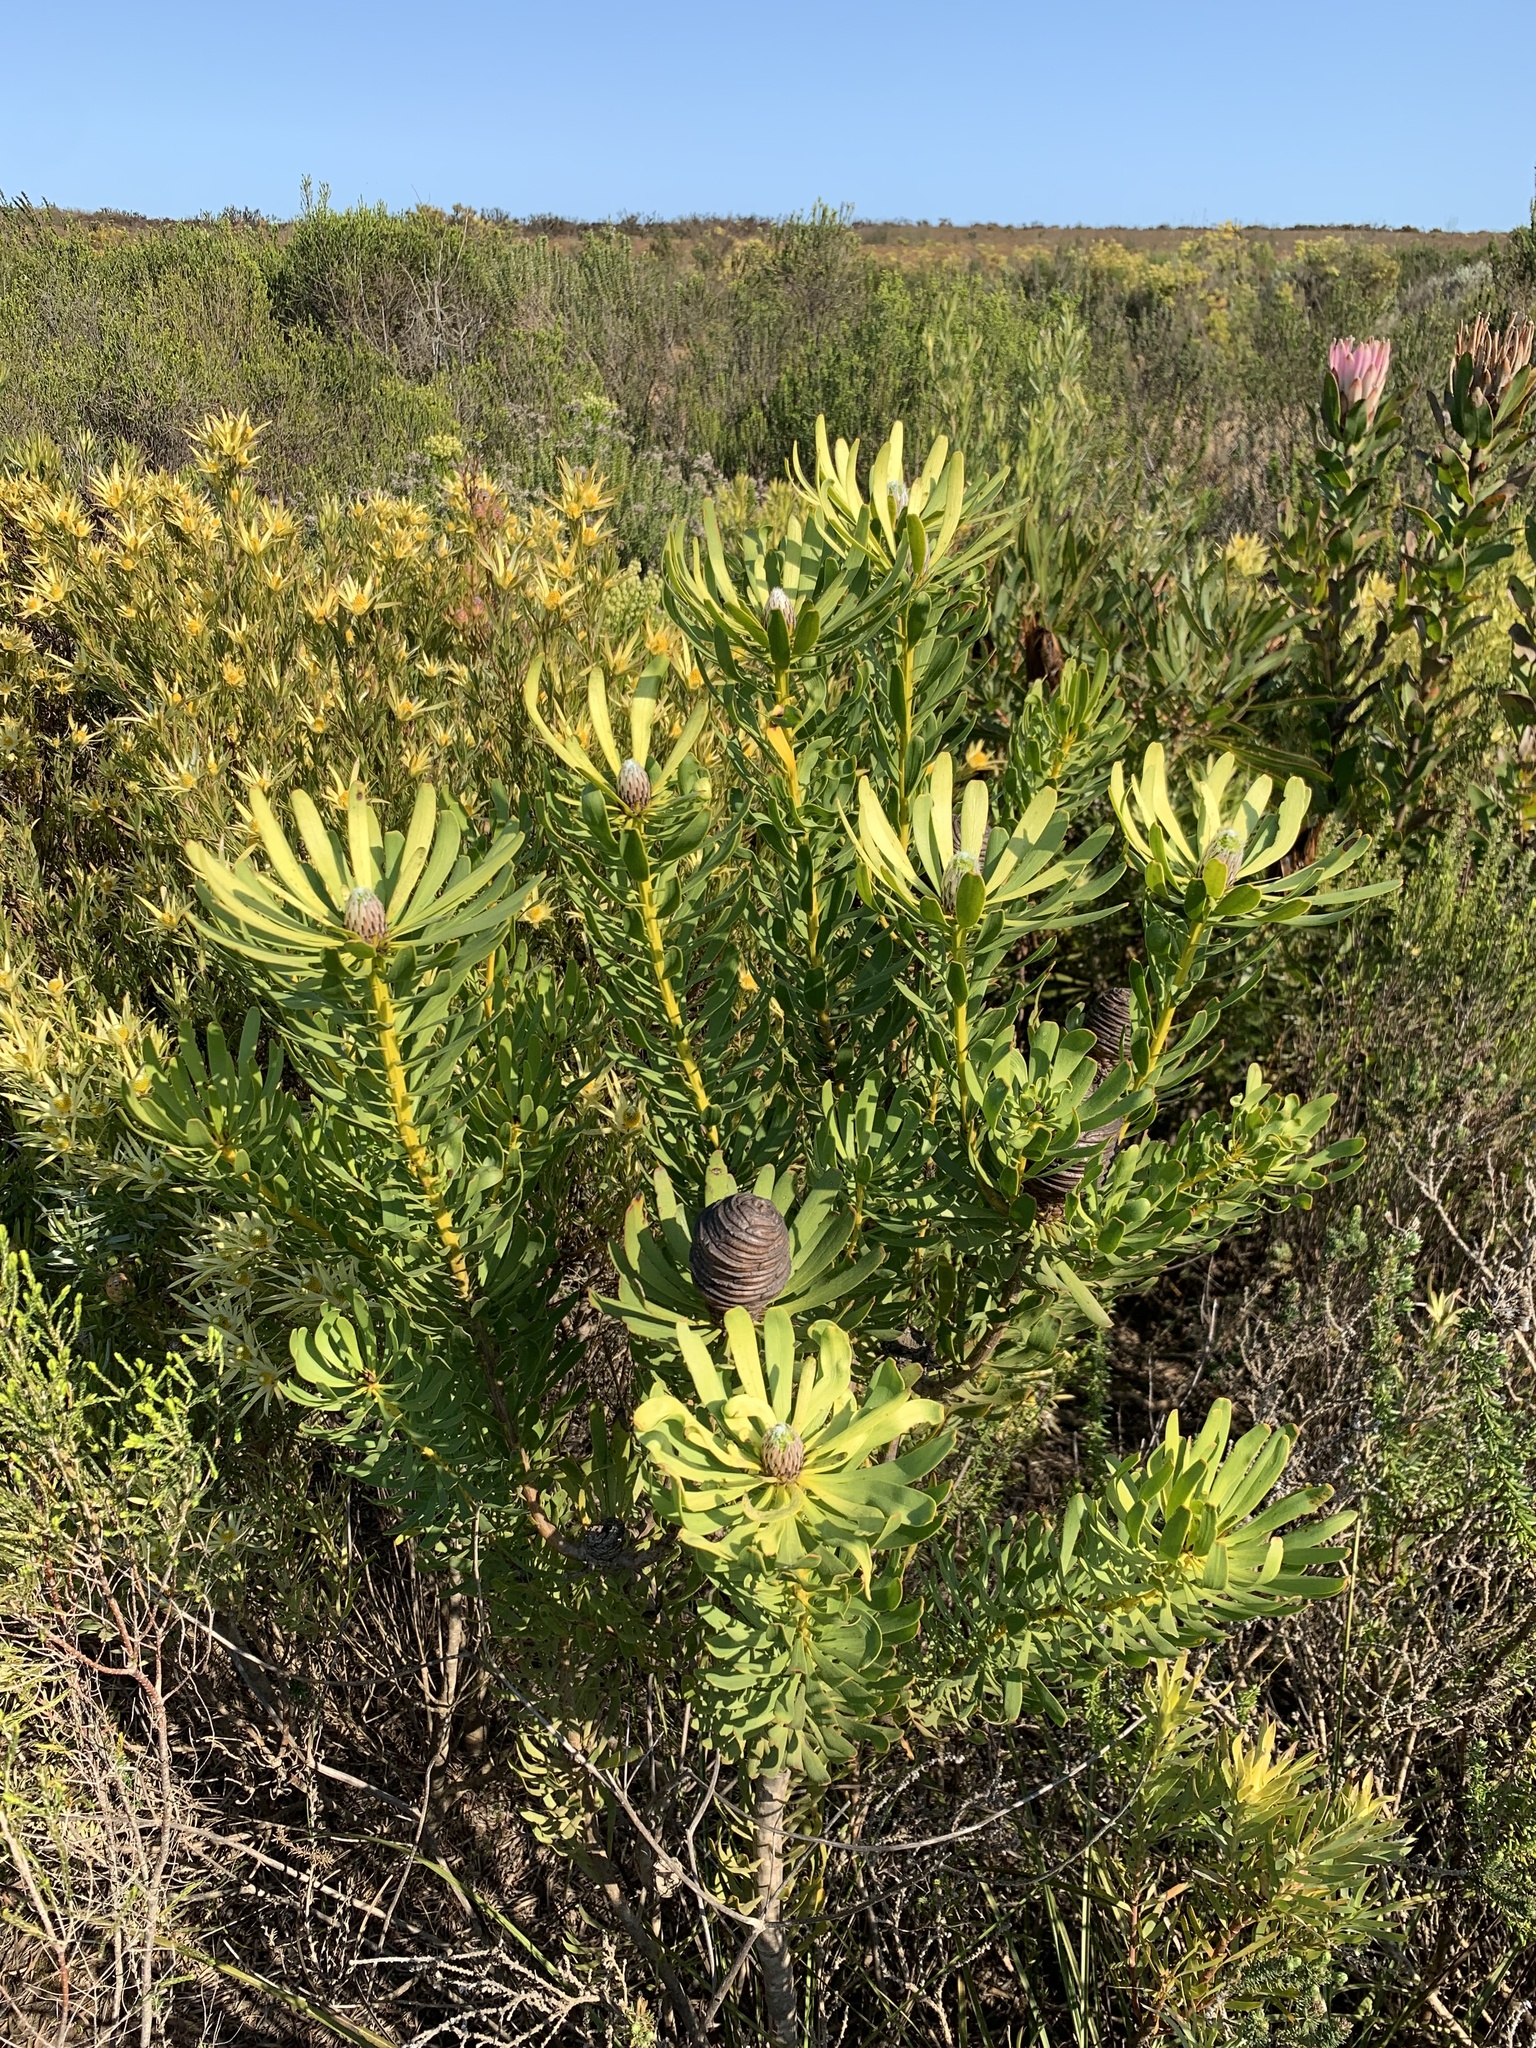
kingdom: Plantae
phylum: Tracheophyta
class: Magnoliopsida
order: Proteales
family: Proteaceae
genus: Leucadendron
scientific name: Leucadendron platyspermum
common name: Plate-seed conebush
